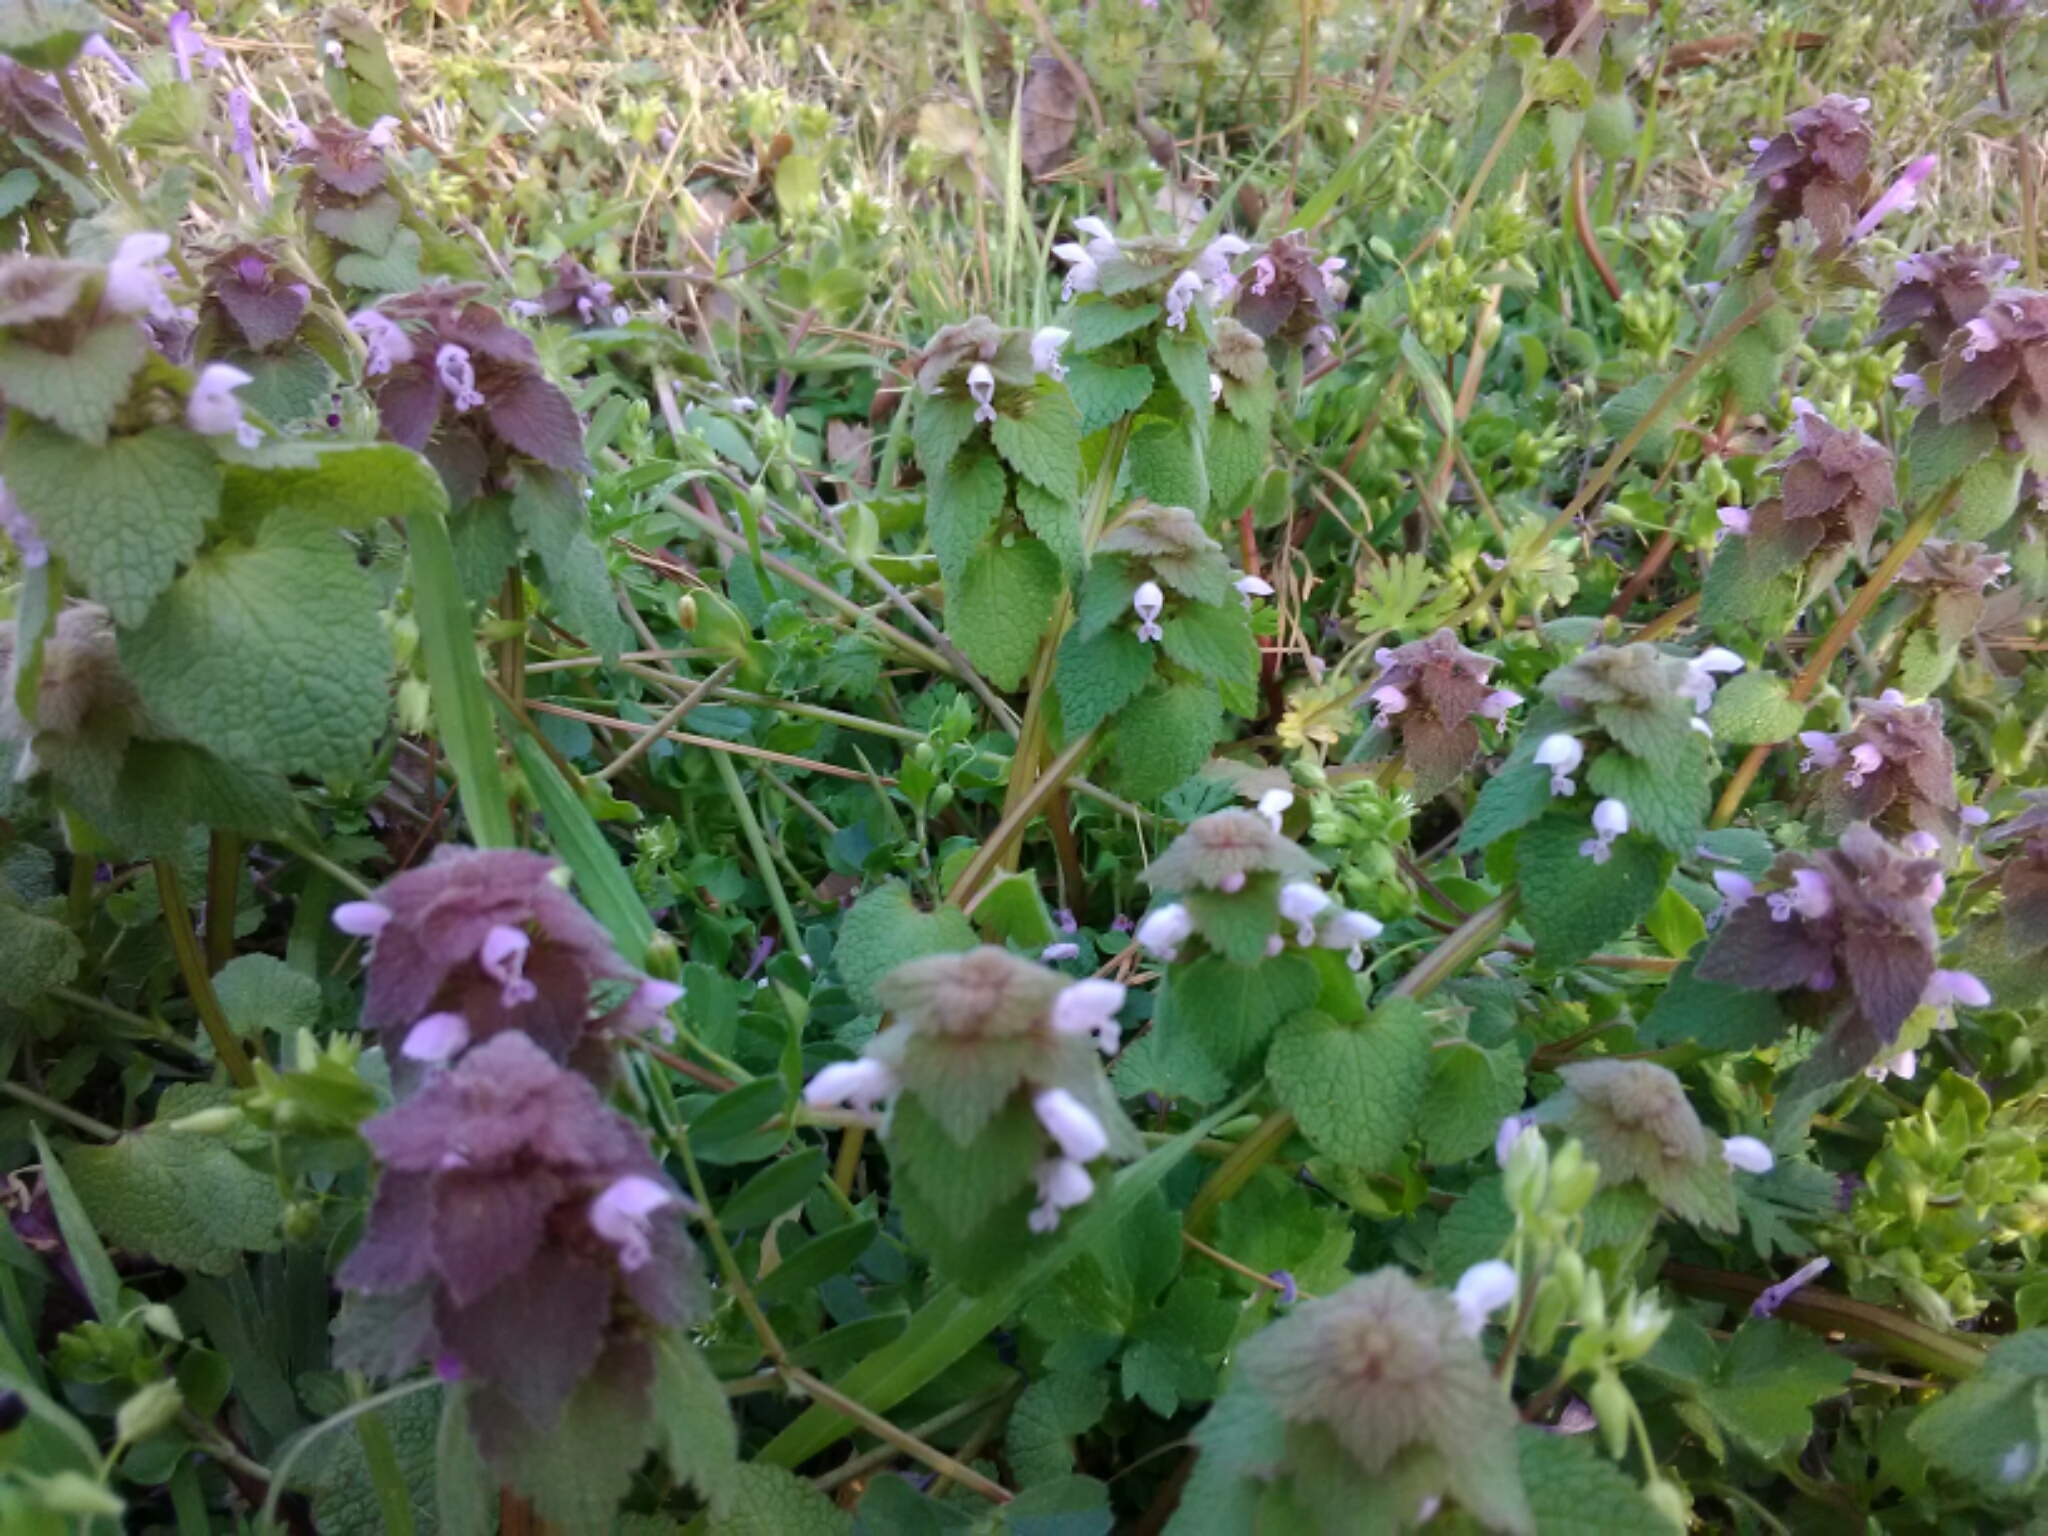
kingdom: Plantae
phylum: Tracheophyta
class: Magnoliopsida
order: Lamiales
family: Lamiaceae
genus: Lamium
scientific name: Lamium purpureum
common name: Red dead-nettle
